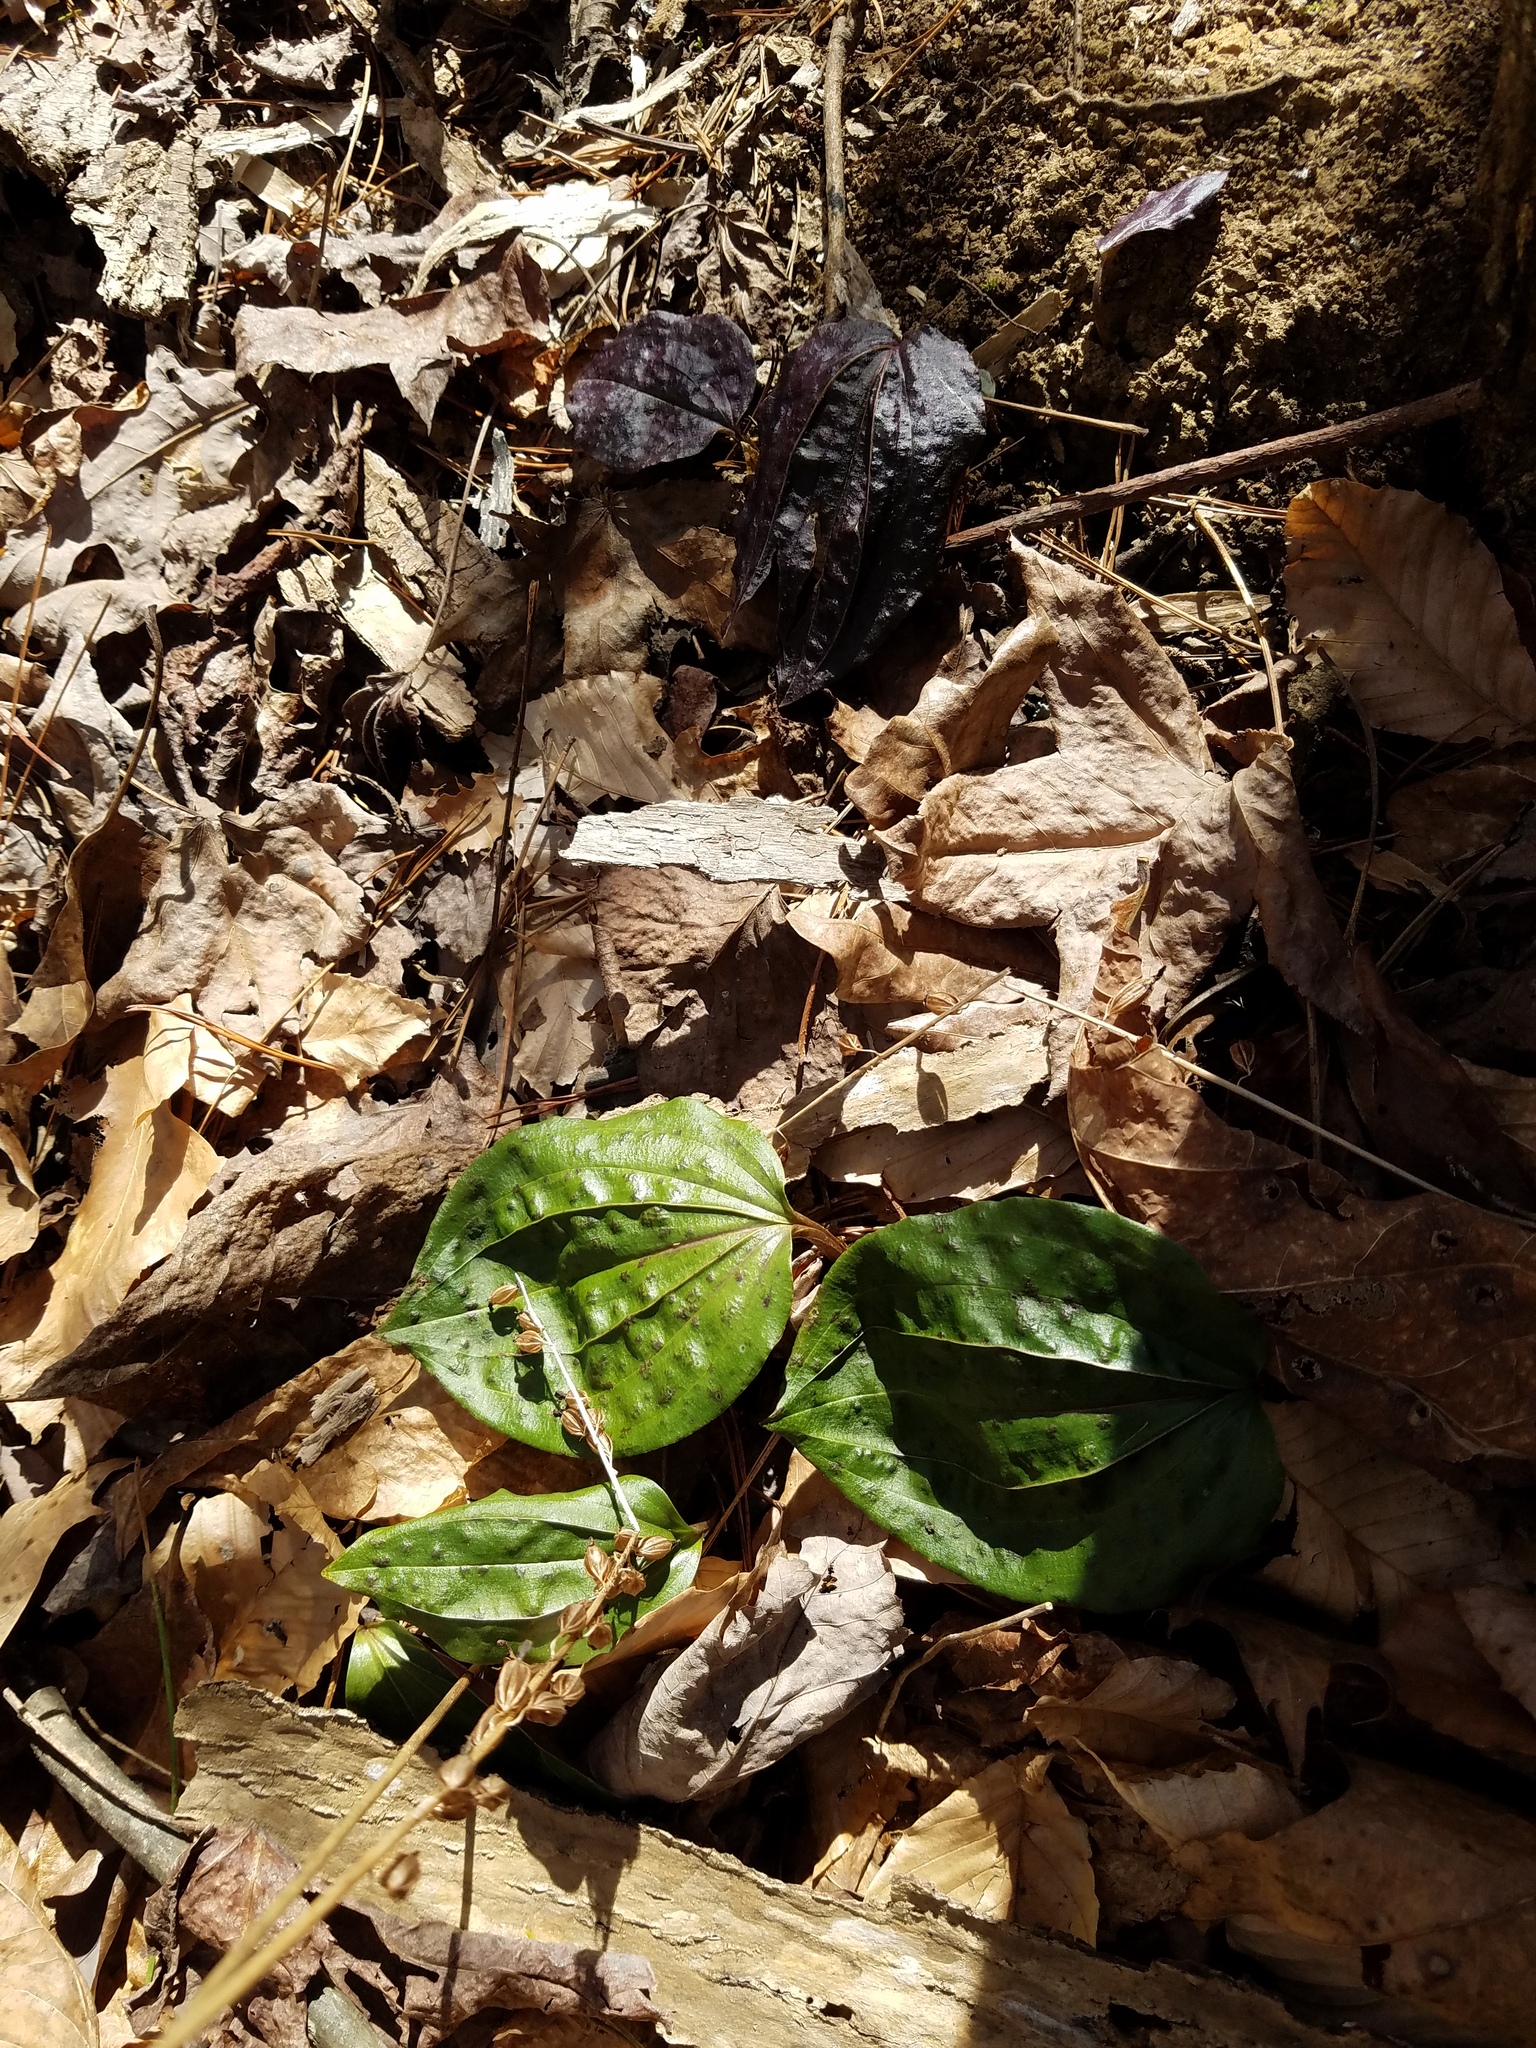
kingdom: Plantae
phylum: Tracheophyta
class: Liliopsida
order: Asparagales
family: Orchidaceae
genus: Tipularia
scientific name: Tipularia discolor
